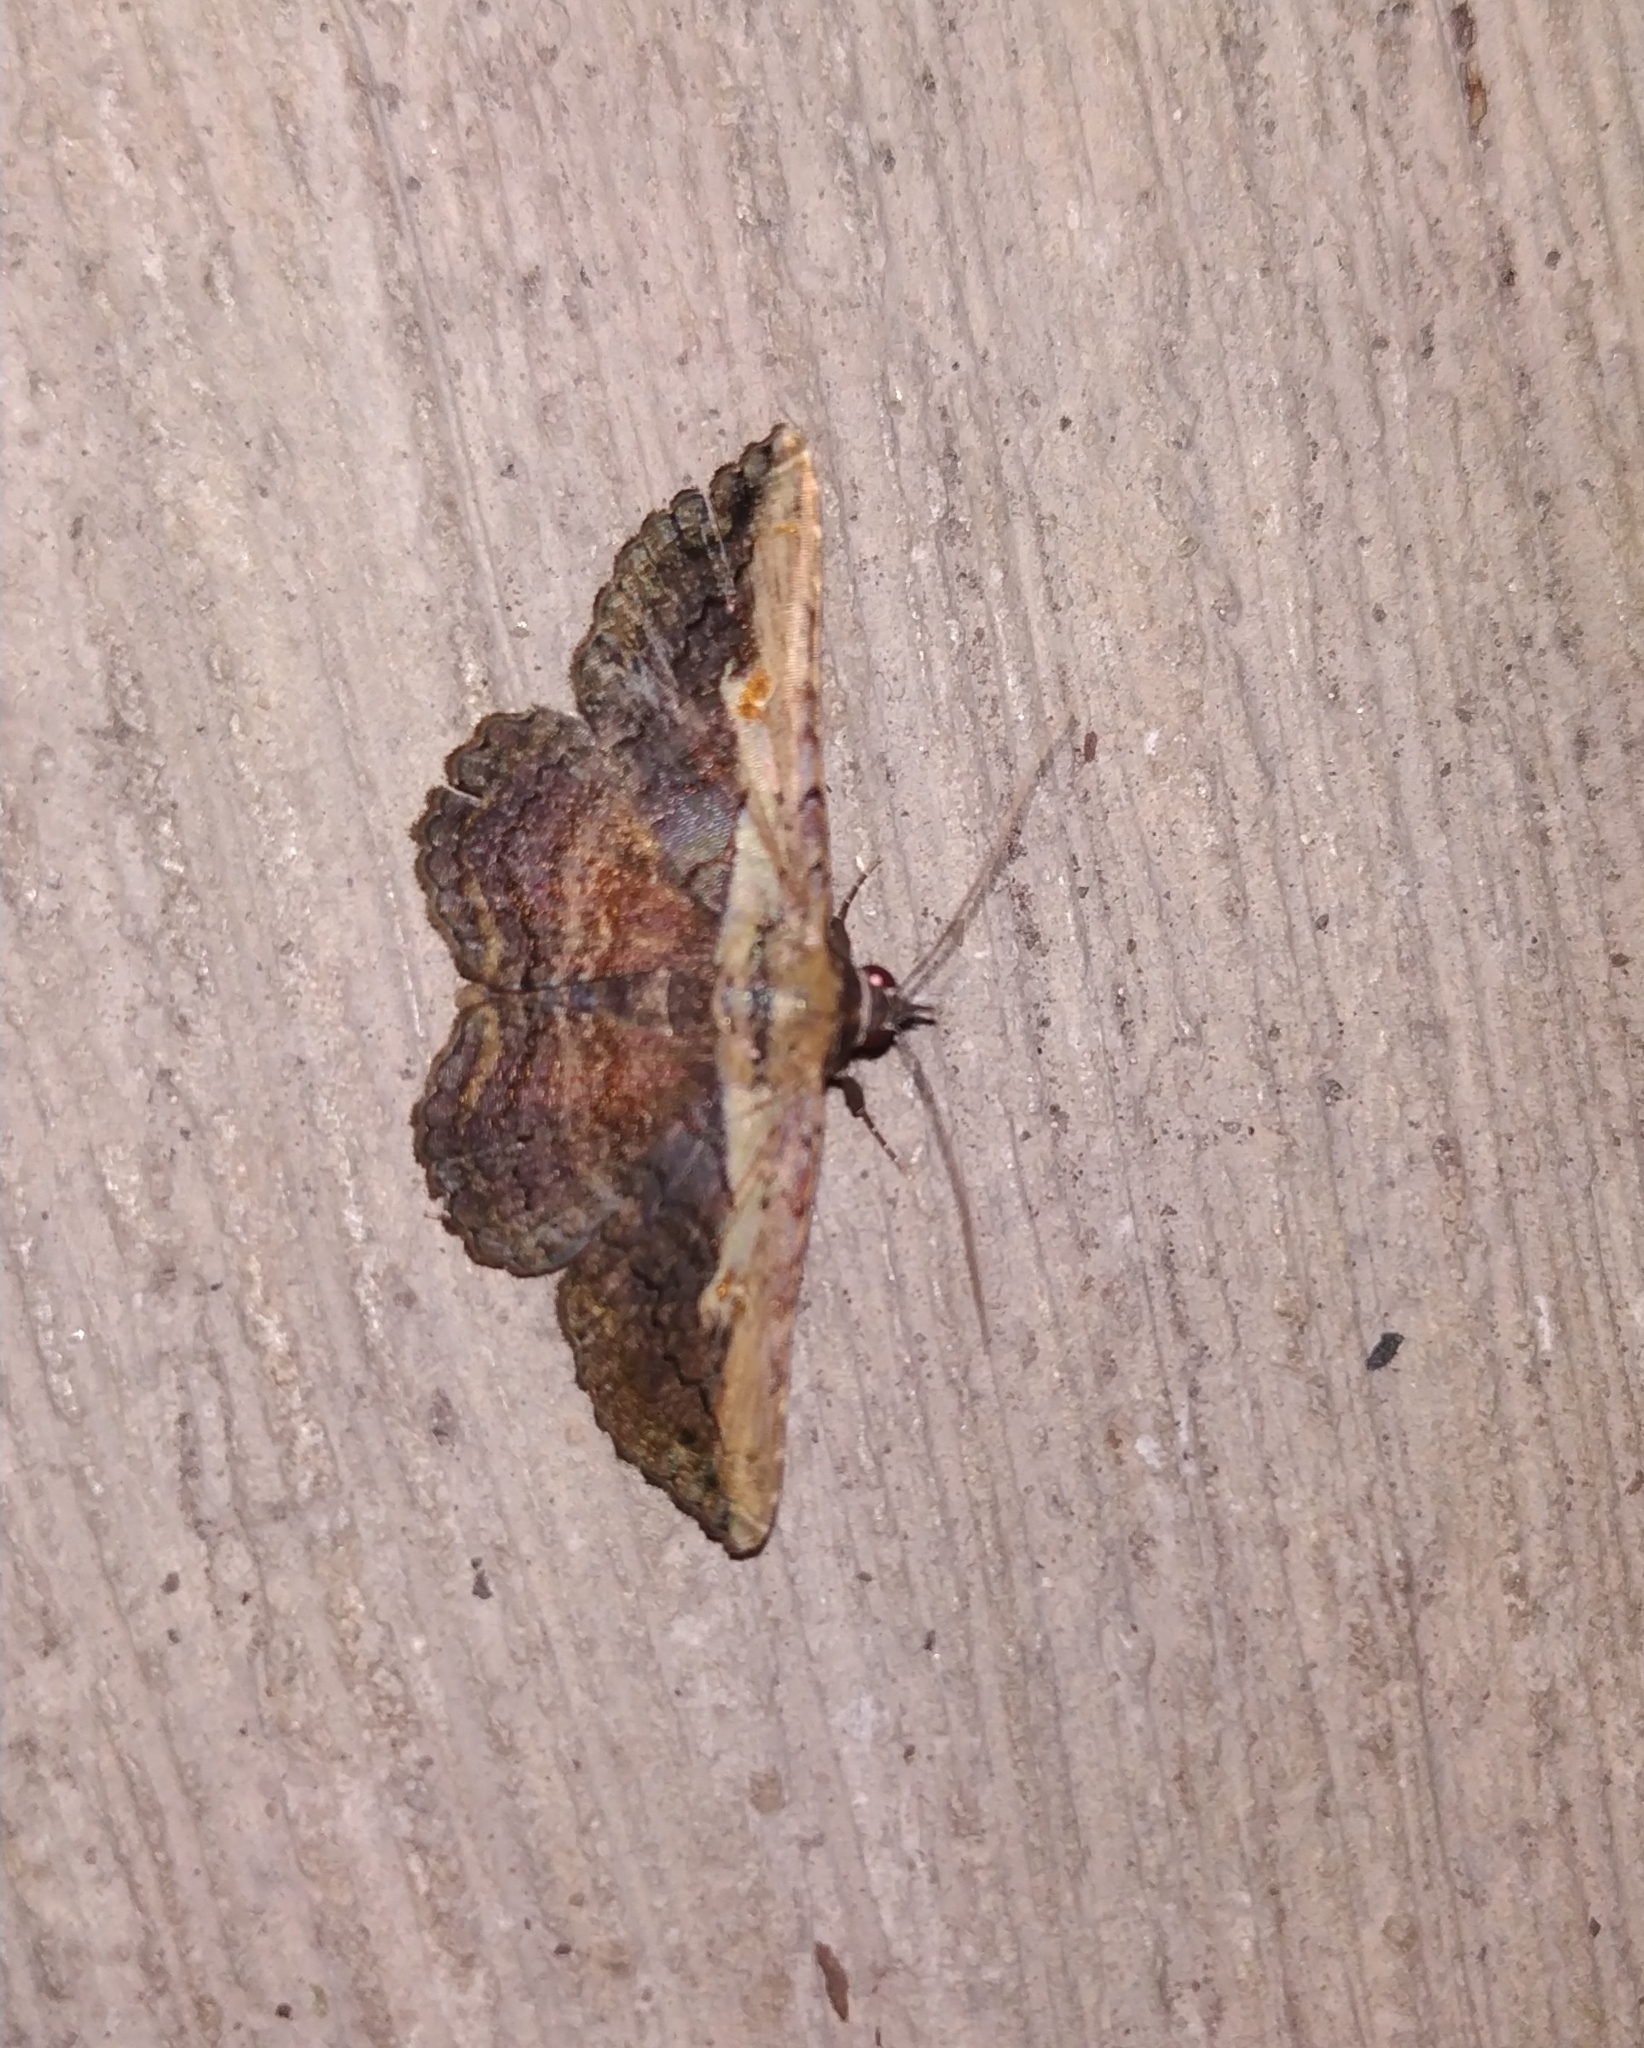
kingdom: Animalia
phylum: Arthropoda
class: Insecta
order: Lepidoptera
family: Erebidae
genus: Selenisa
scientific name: Selenisa sueroides
